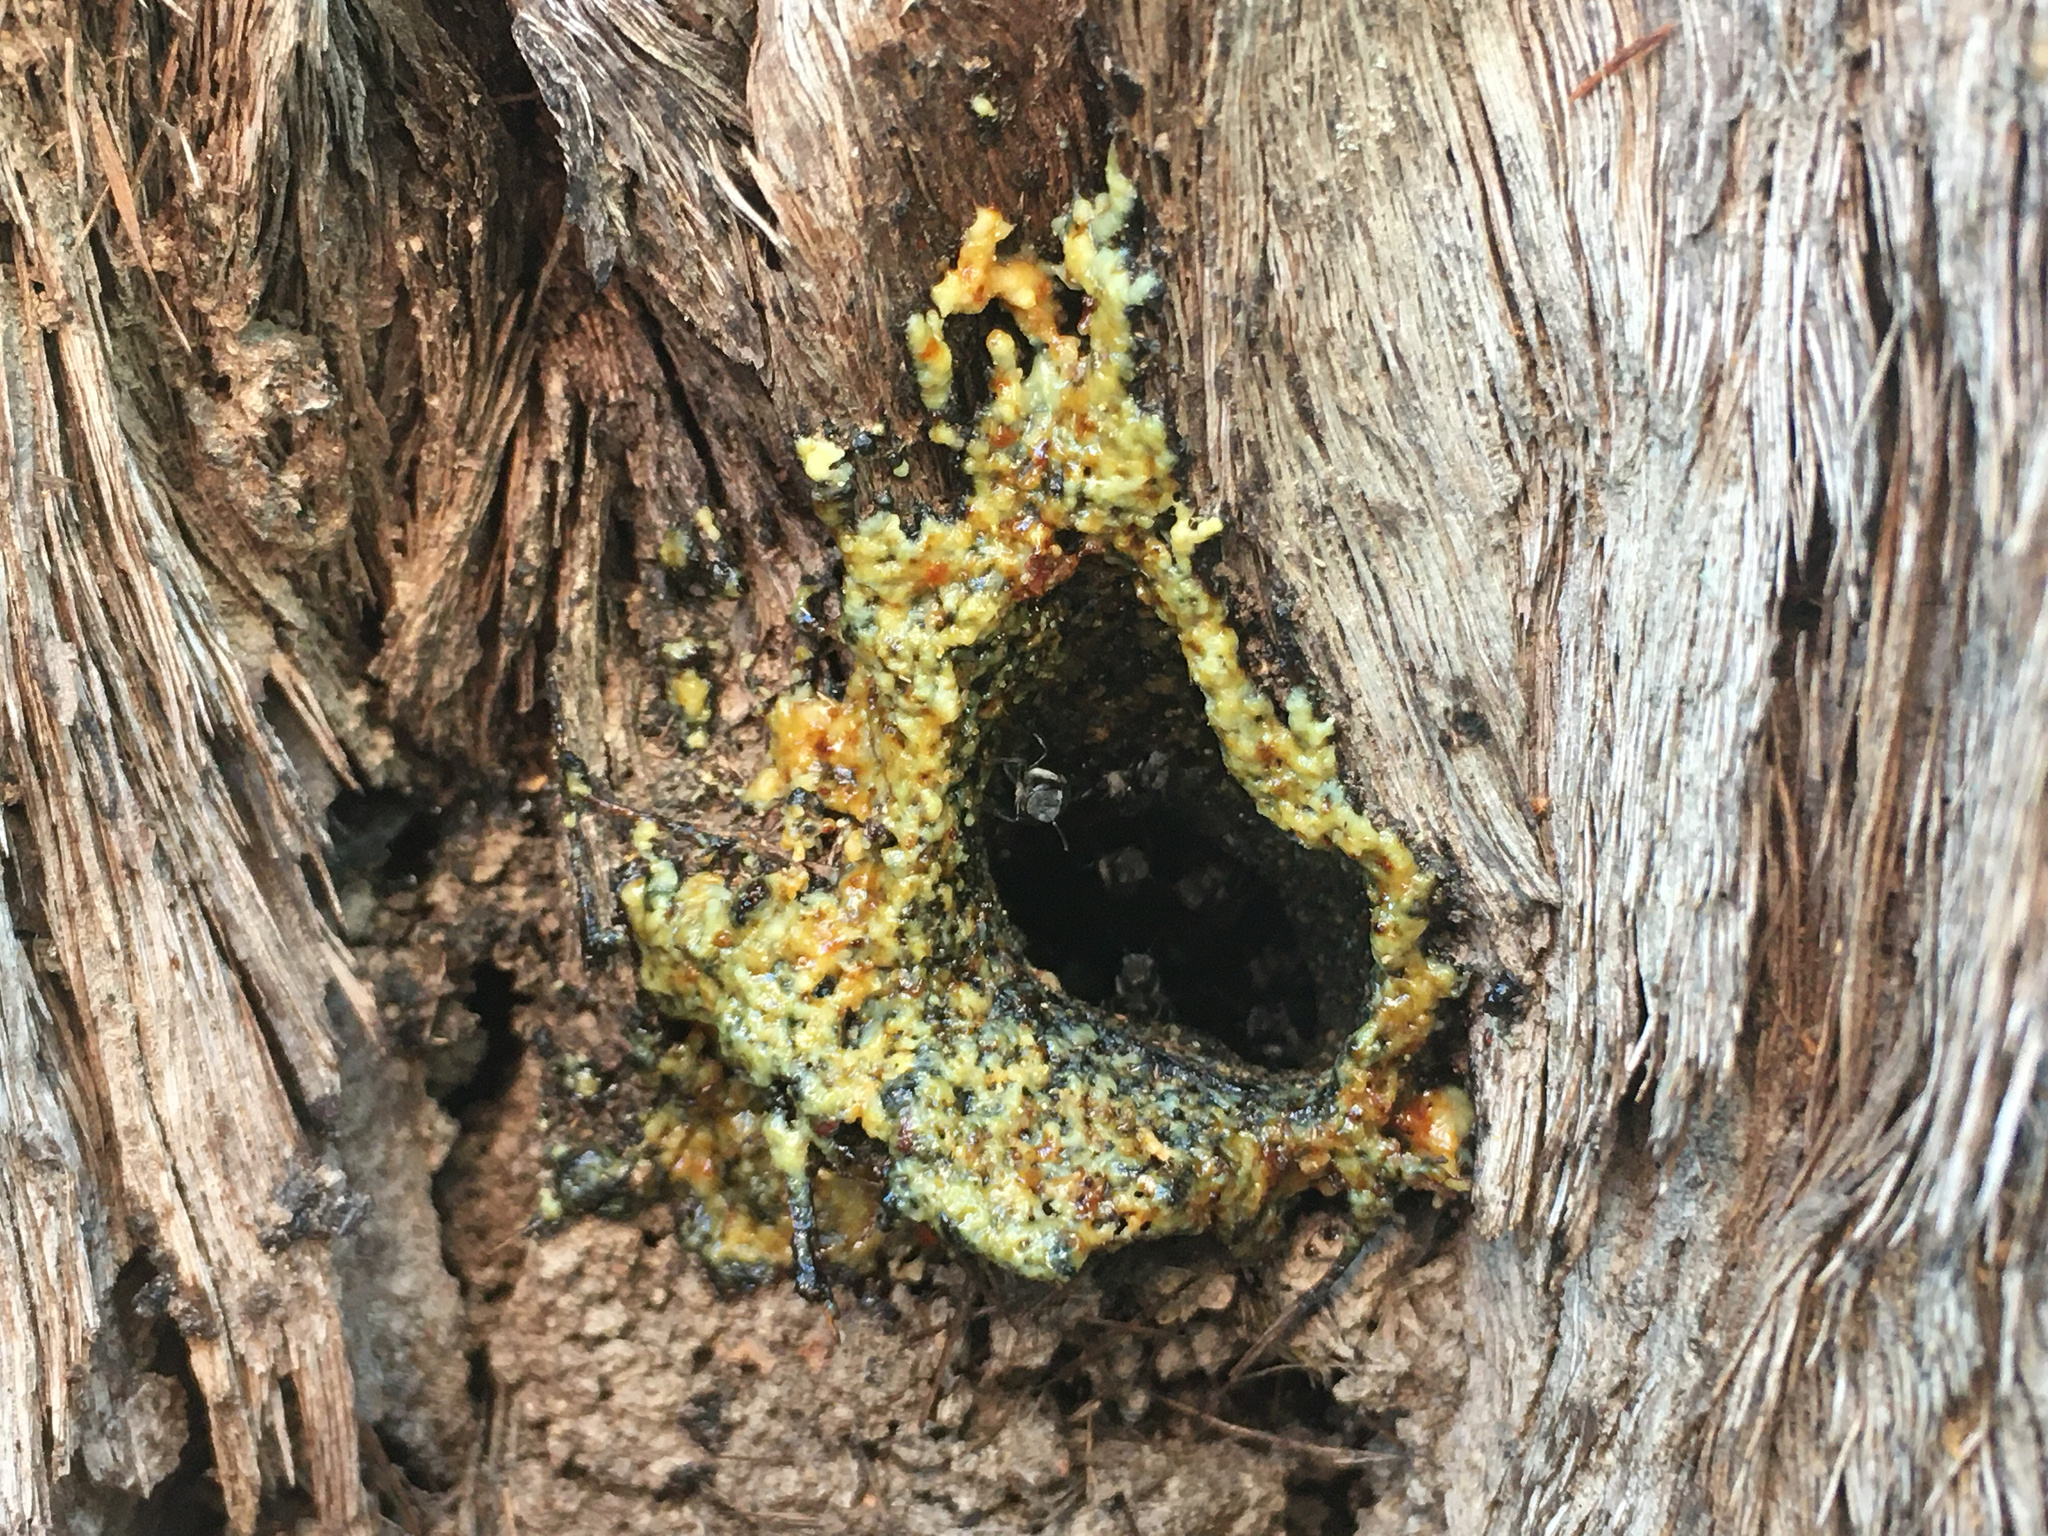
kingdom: Animalia
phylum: Arthropoda
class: Insecta
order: Hymenoptera
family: Apidae
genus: Tetragonula
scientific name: Tetragonula carbonaria
